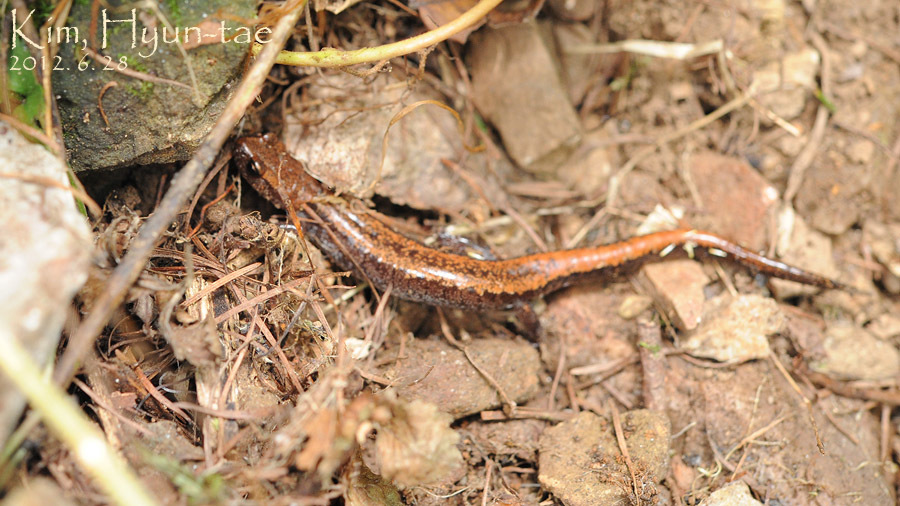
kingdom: Animalia
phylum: Chordata
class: Amphibia
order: Caudata
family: Plethodontidae
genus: Karsenia
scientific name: Karsenia koreana
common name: Korean crevice salamander
